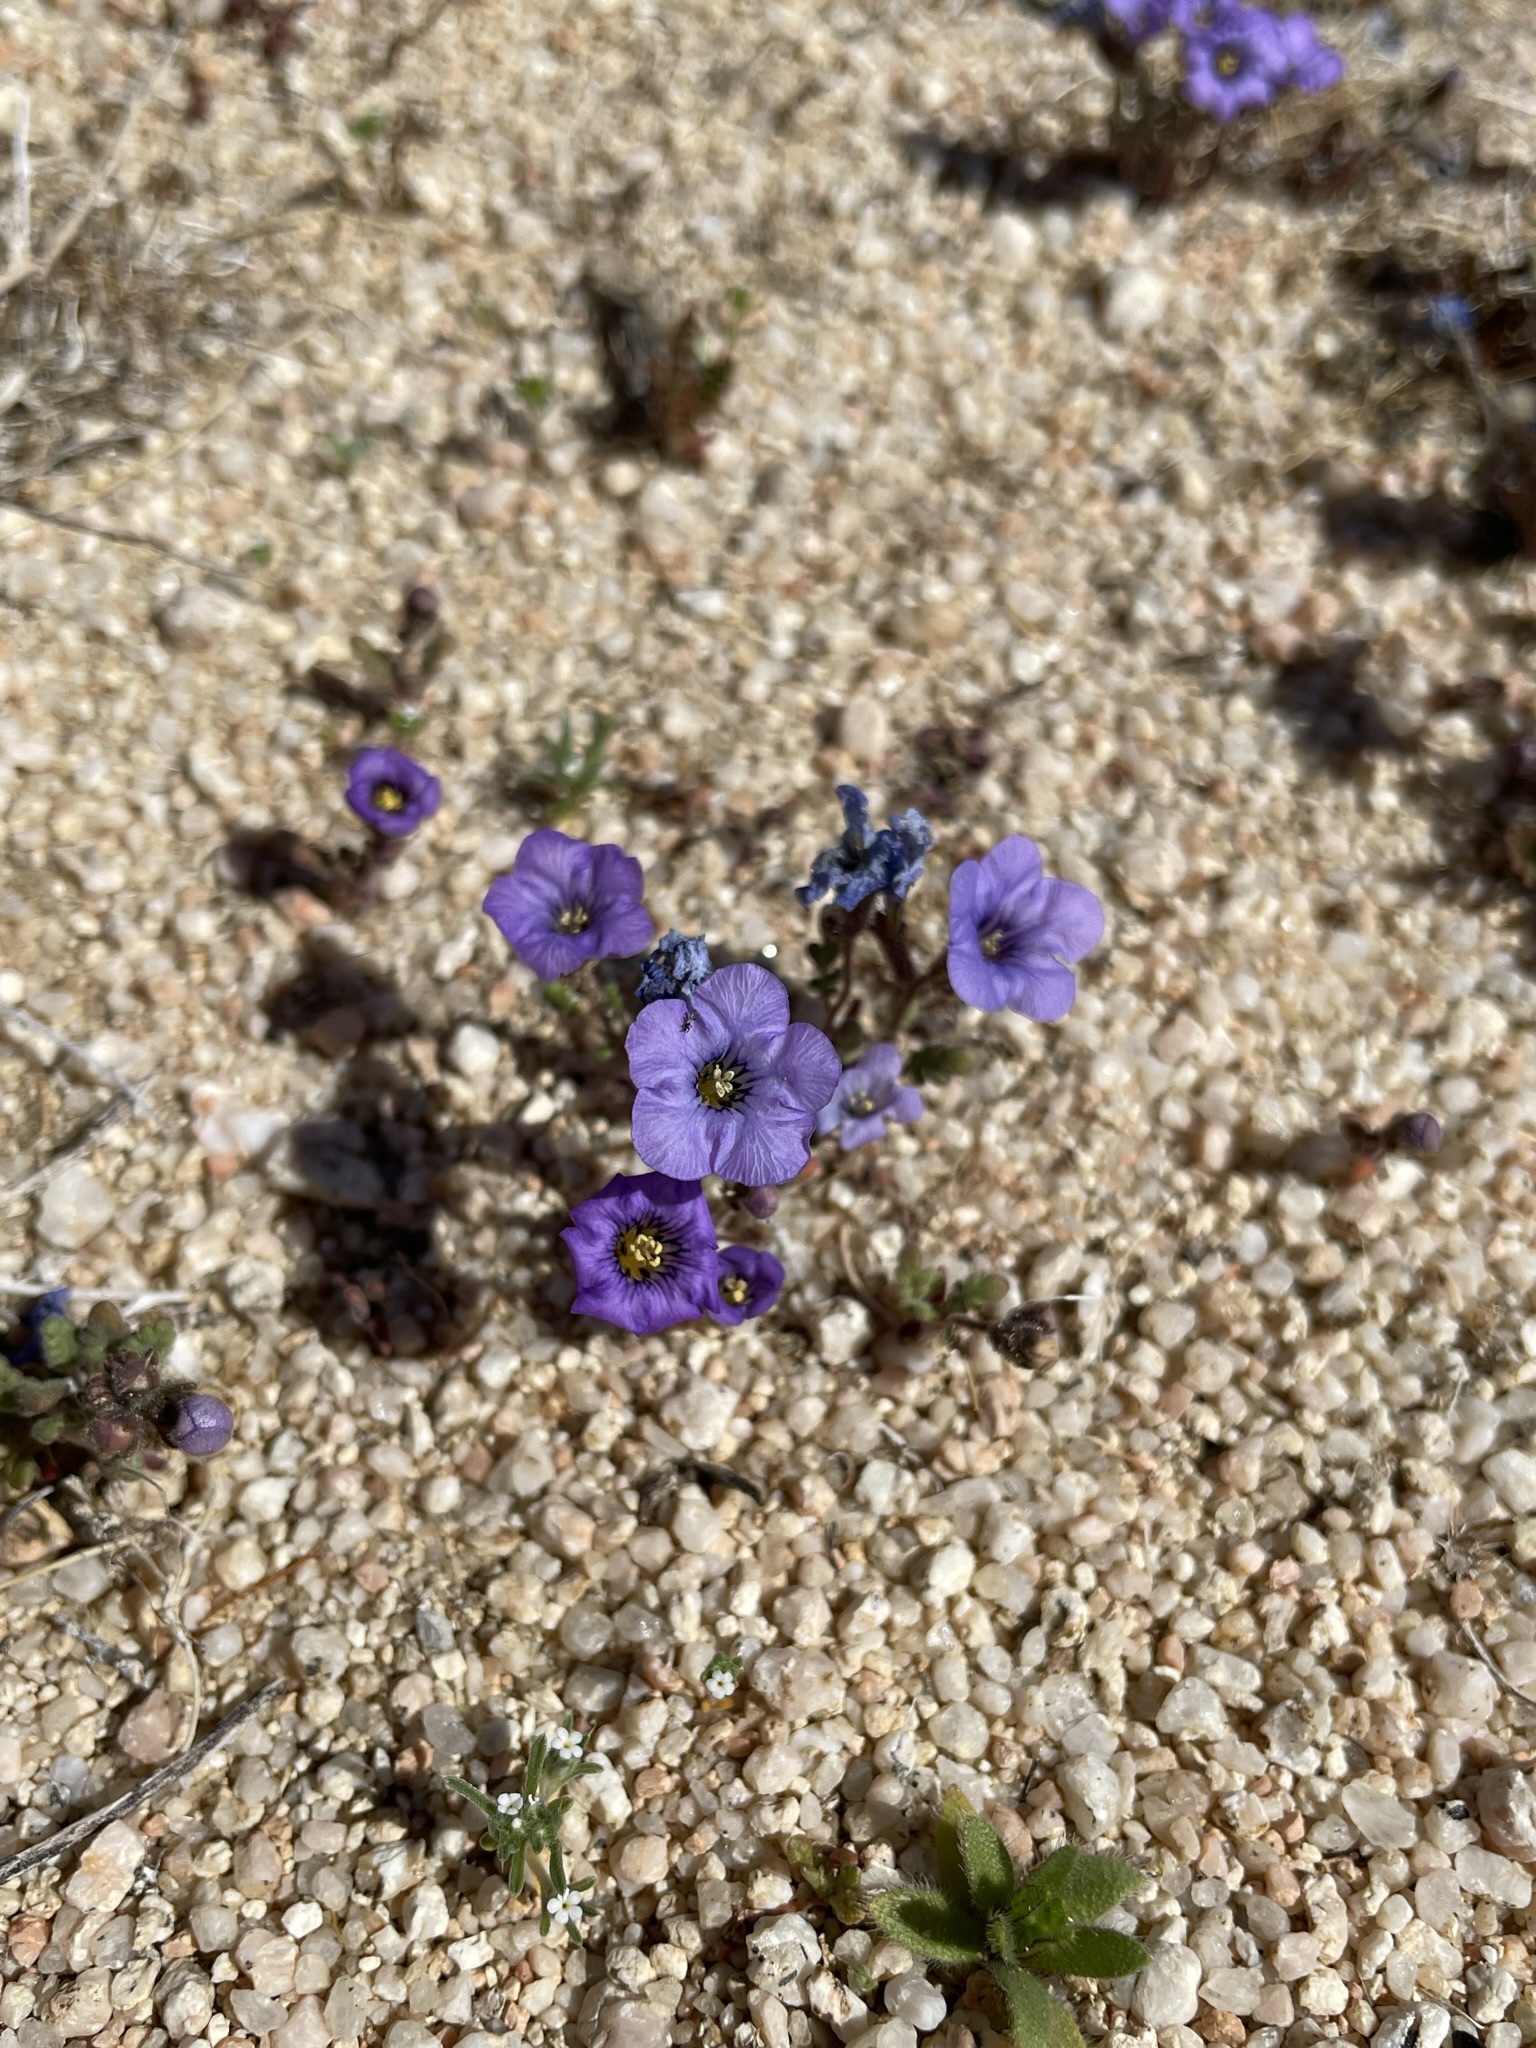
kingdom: Plantae
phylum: Tracheophyta
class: Magnoliopsida
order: Boraginales
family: Hydrophyllaceae
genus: Phacelia
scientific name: Phacelia fremontii
